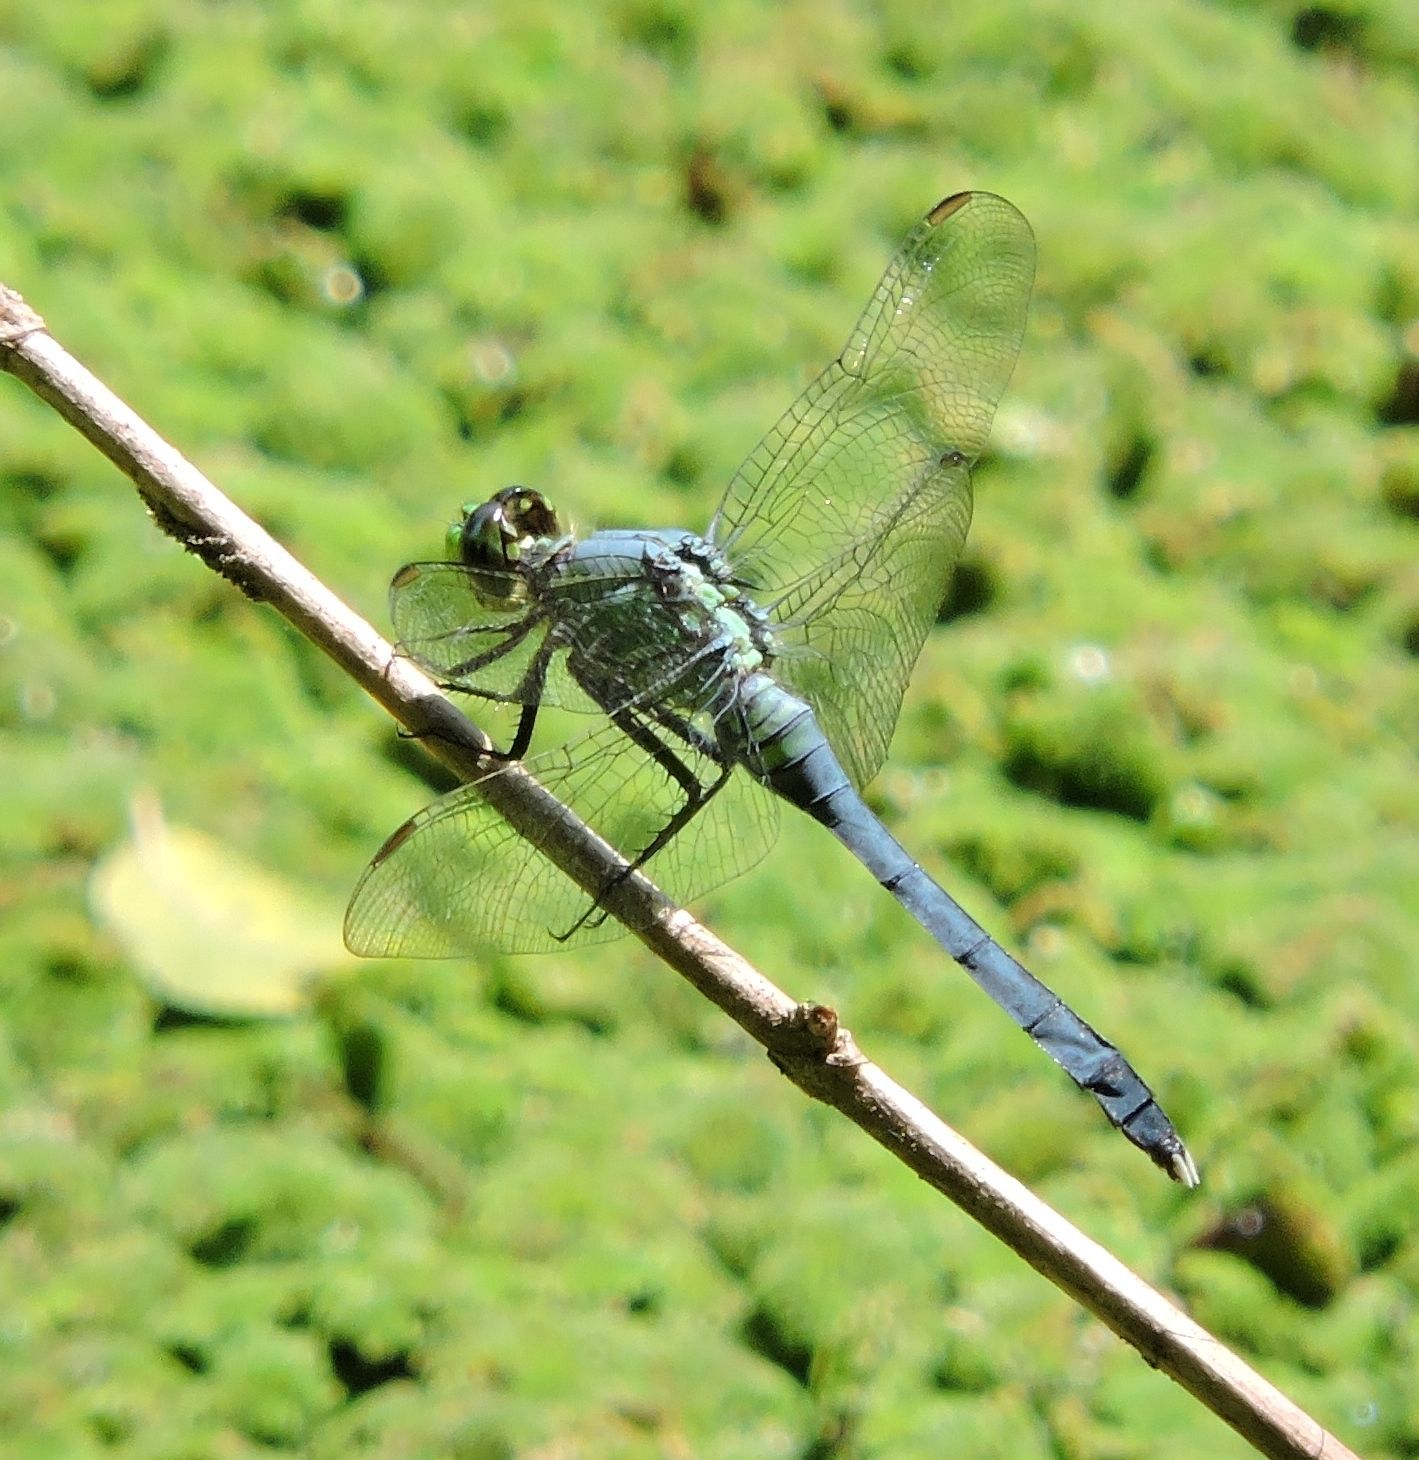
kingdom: Animalia
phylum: Arthropoda
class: Insecta
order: Odonata
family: Libellulidae
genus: Erythemis
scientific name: Erythemis simplicicollis
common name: Eastern pondhawk
